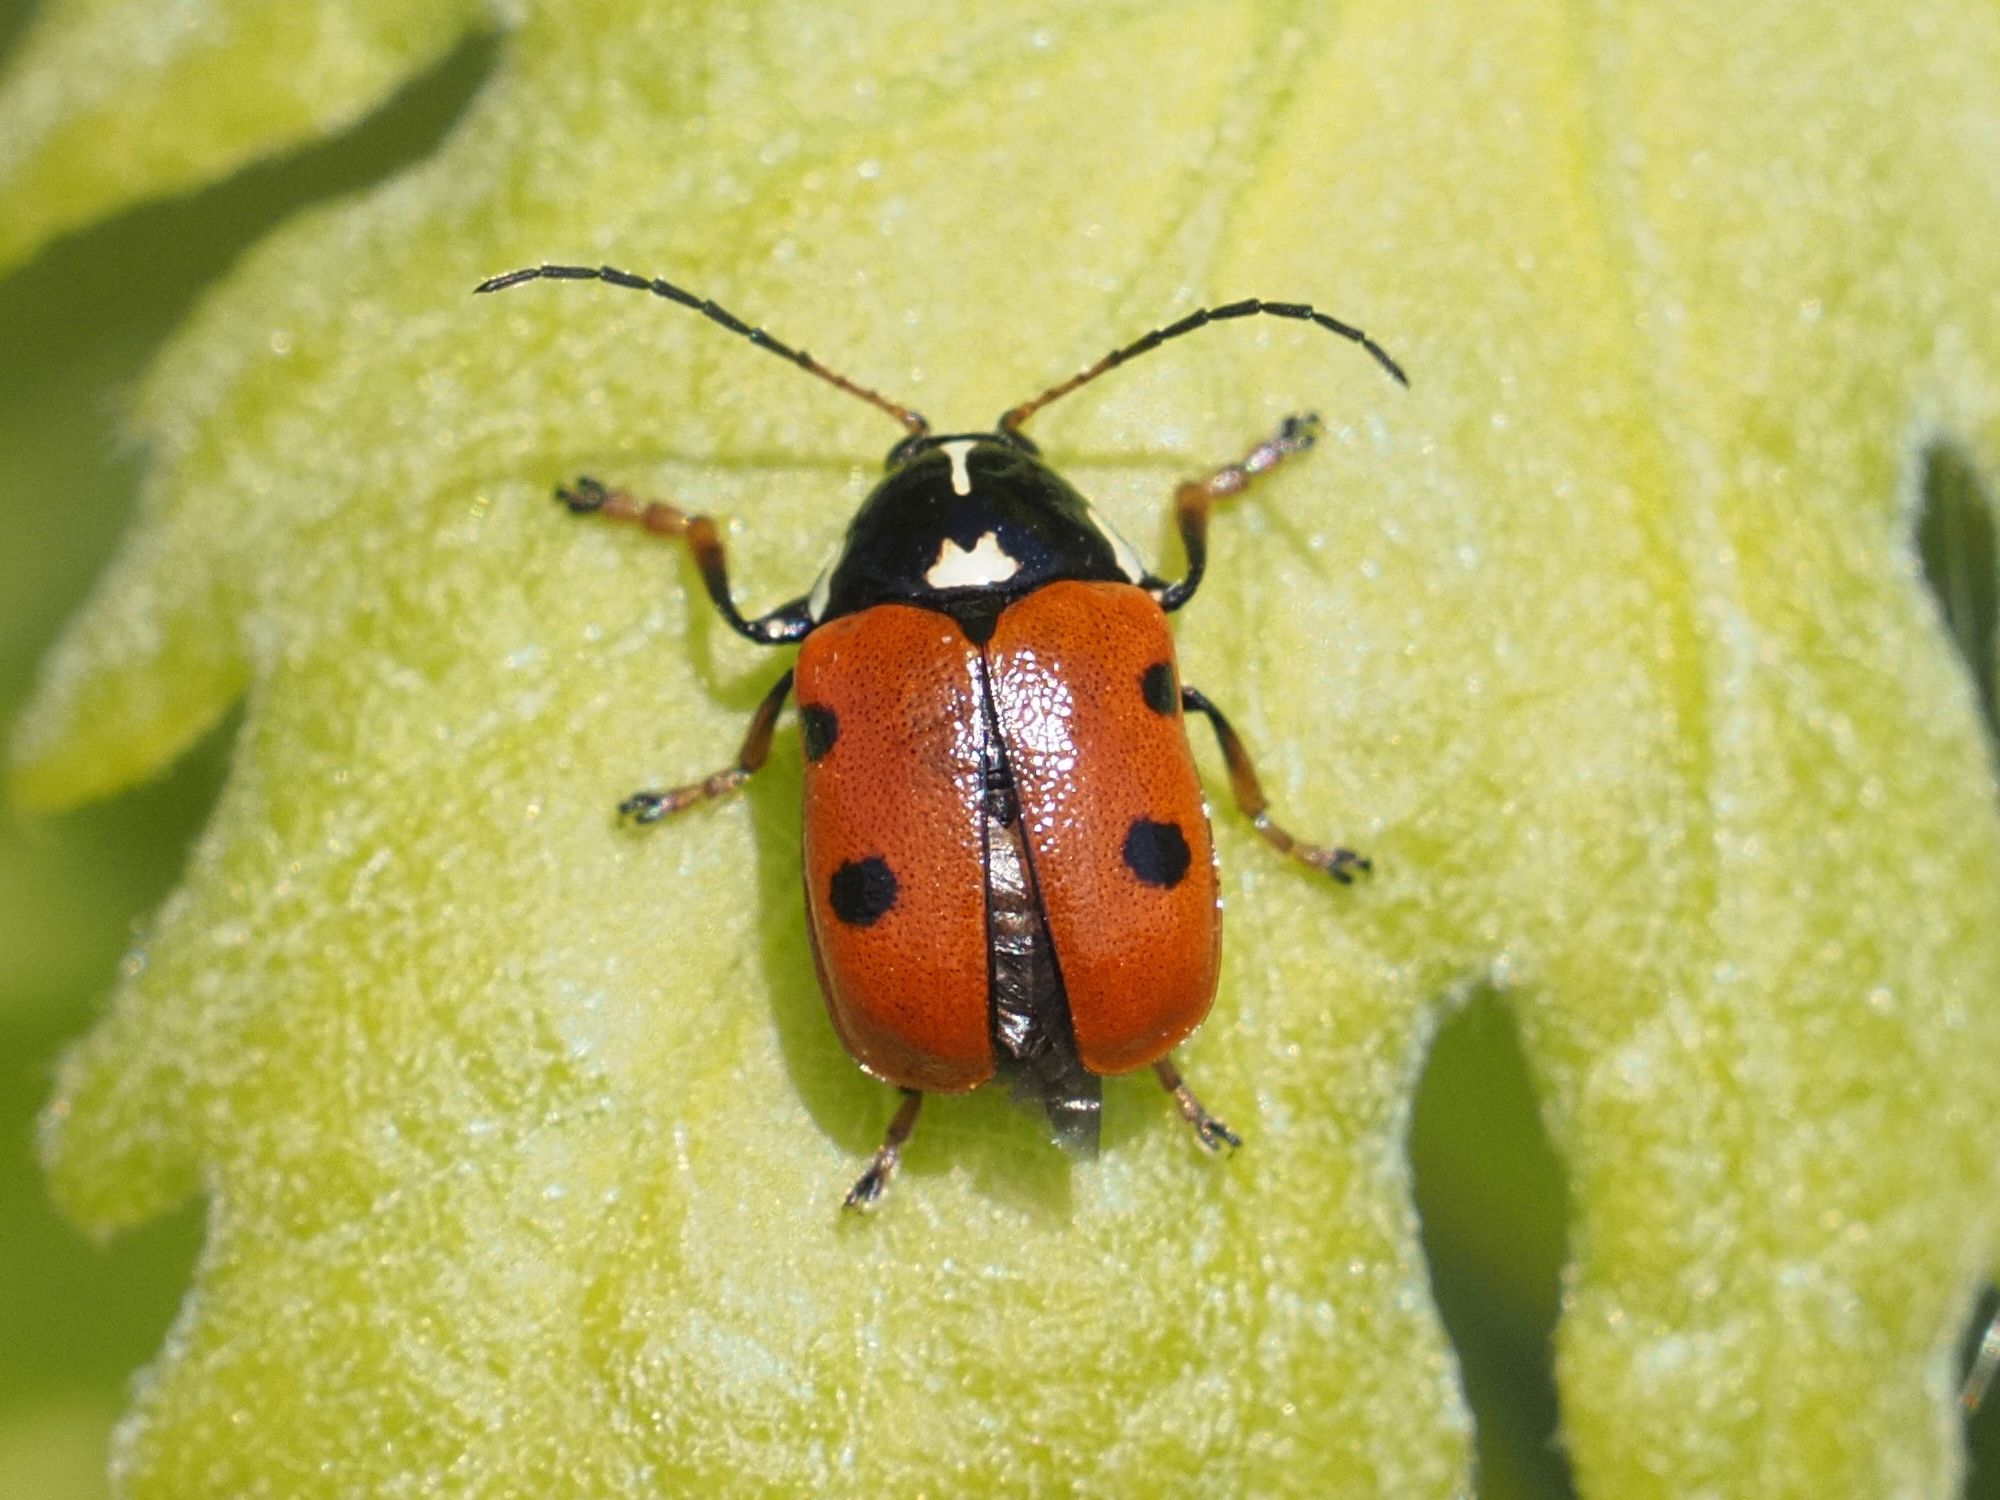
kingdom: Animalia
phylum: Arthropoda
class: Insecta
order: Coleoptera
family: Chrysomelidae
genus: Cryptocephalus
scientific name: Cryptocephalus cordiger
